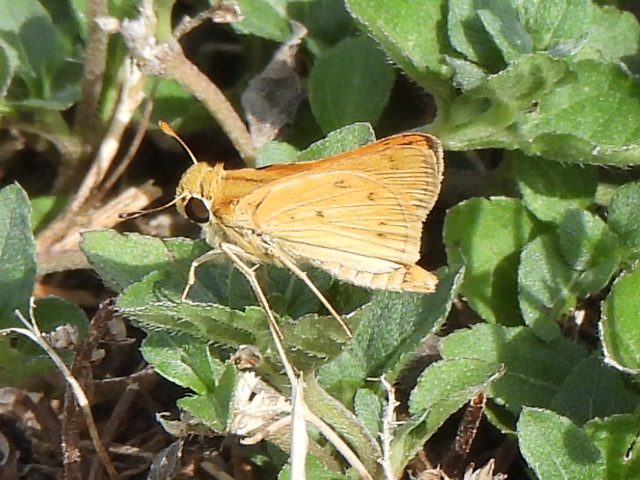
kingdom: Animalia
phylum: Arthropoda
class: Insecta
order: Lepidoptera
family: Hesperiidae
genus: Hylephila
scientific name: Hylephila phyleus
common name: Fiery skipper
